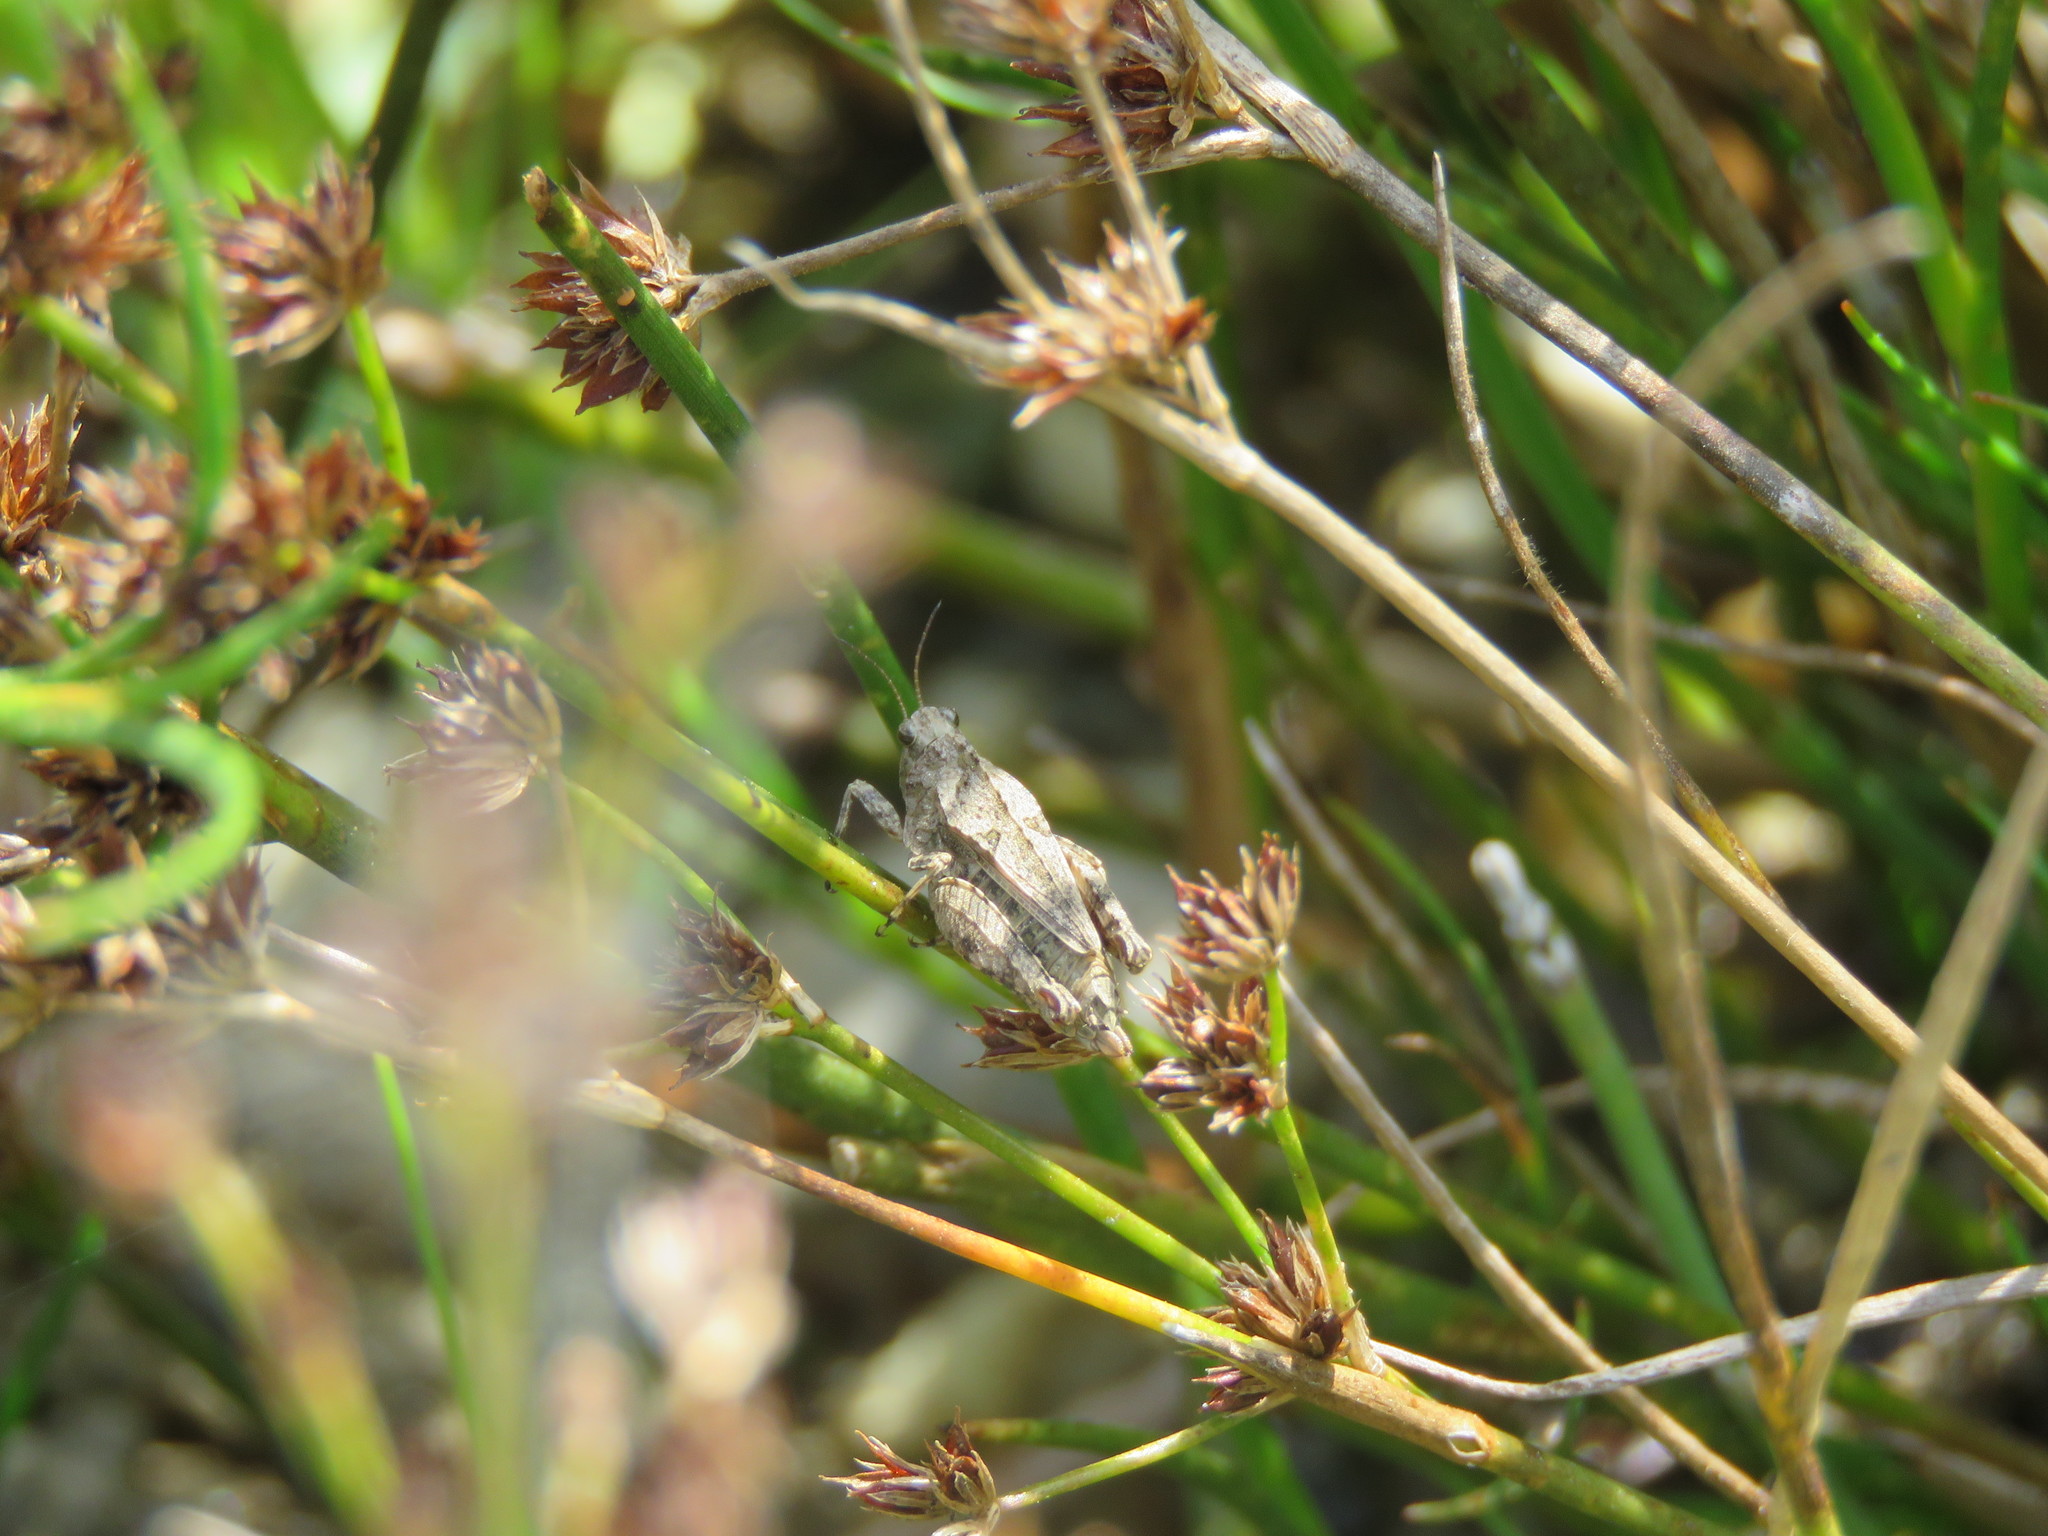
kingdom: Animalia
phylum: Arthropoda
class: Insecta
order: Orthoptera
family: Tetrigidae
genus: Tetrix
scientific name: Tetrix tenuicornis
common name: Long-horned groundhopper
